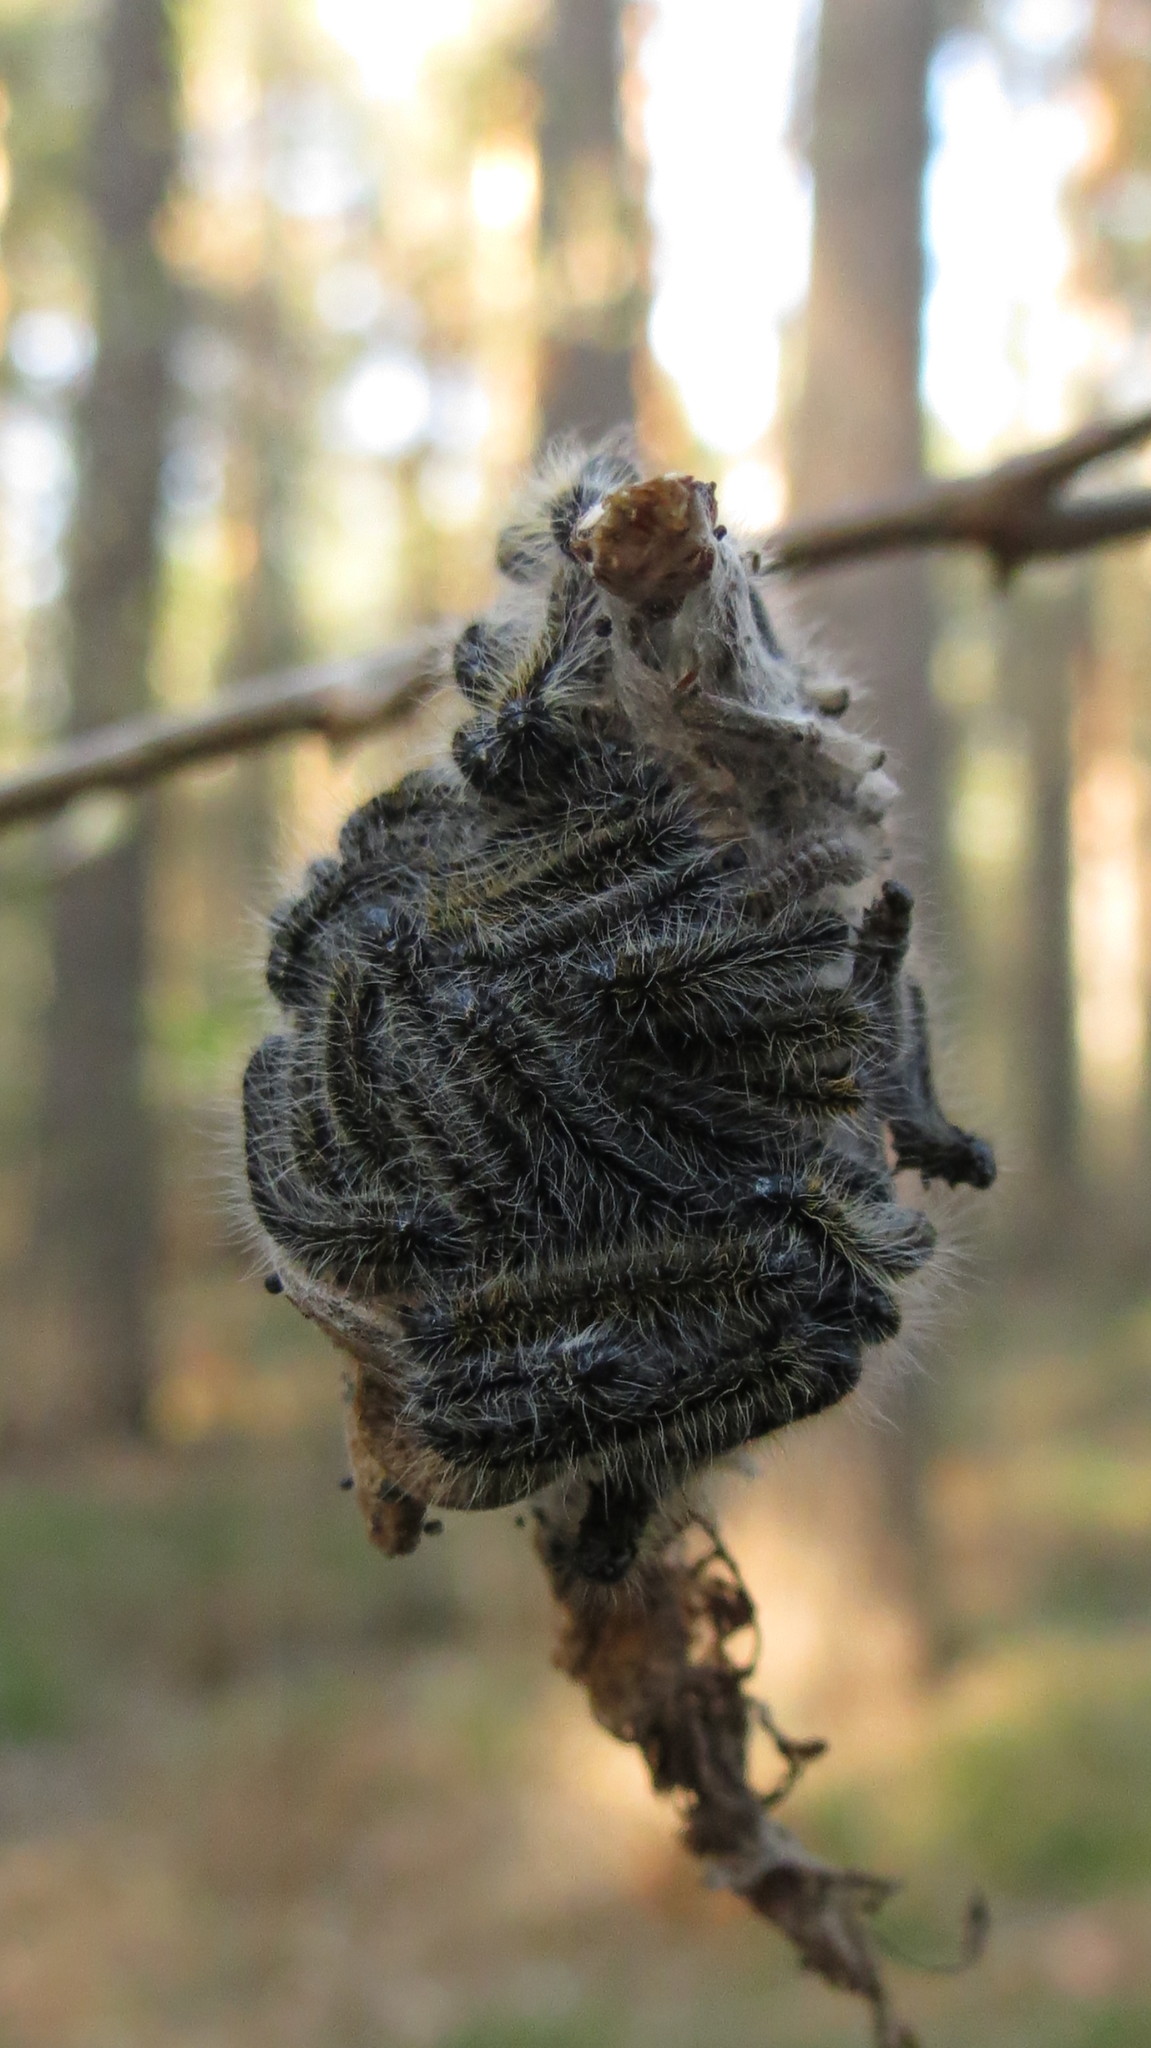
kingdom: Animalia
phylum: Arthropoda
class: Insecta
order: Lepidoptera
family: Pieridae
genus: Aporia
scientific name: Aporia crataegi
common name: Black-veined white
